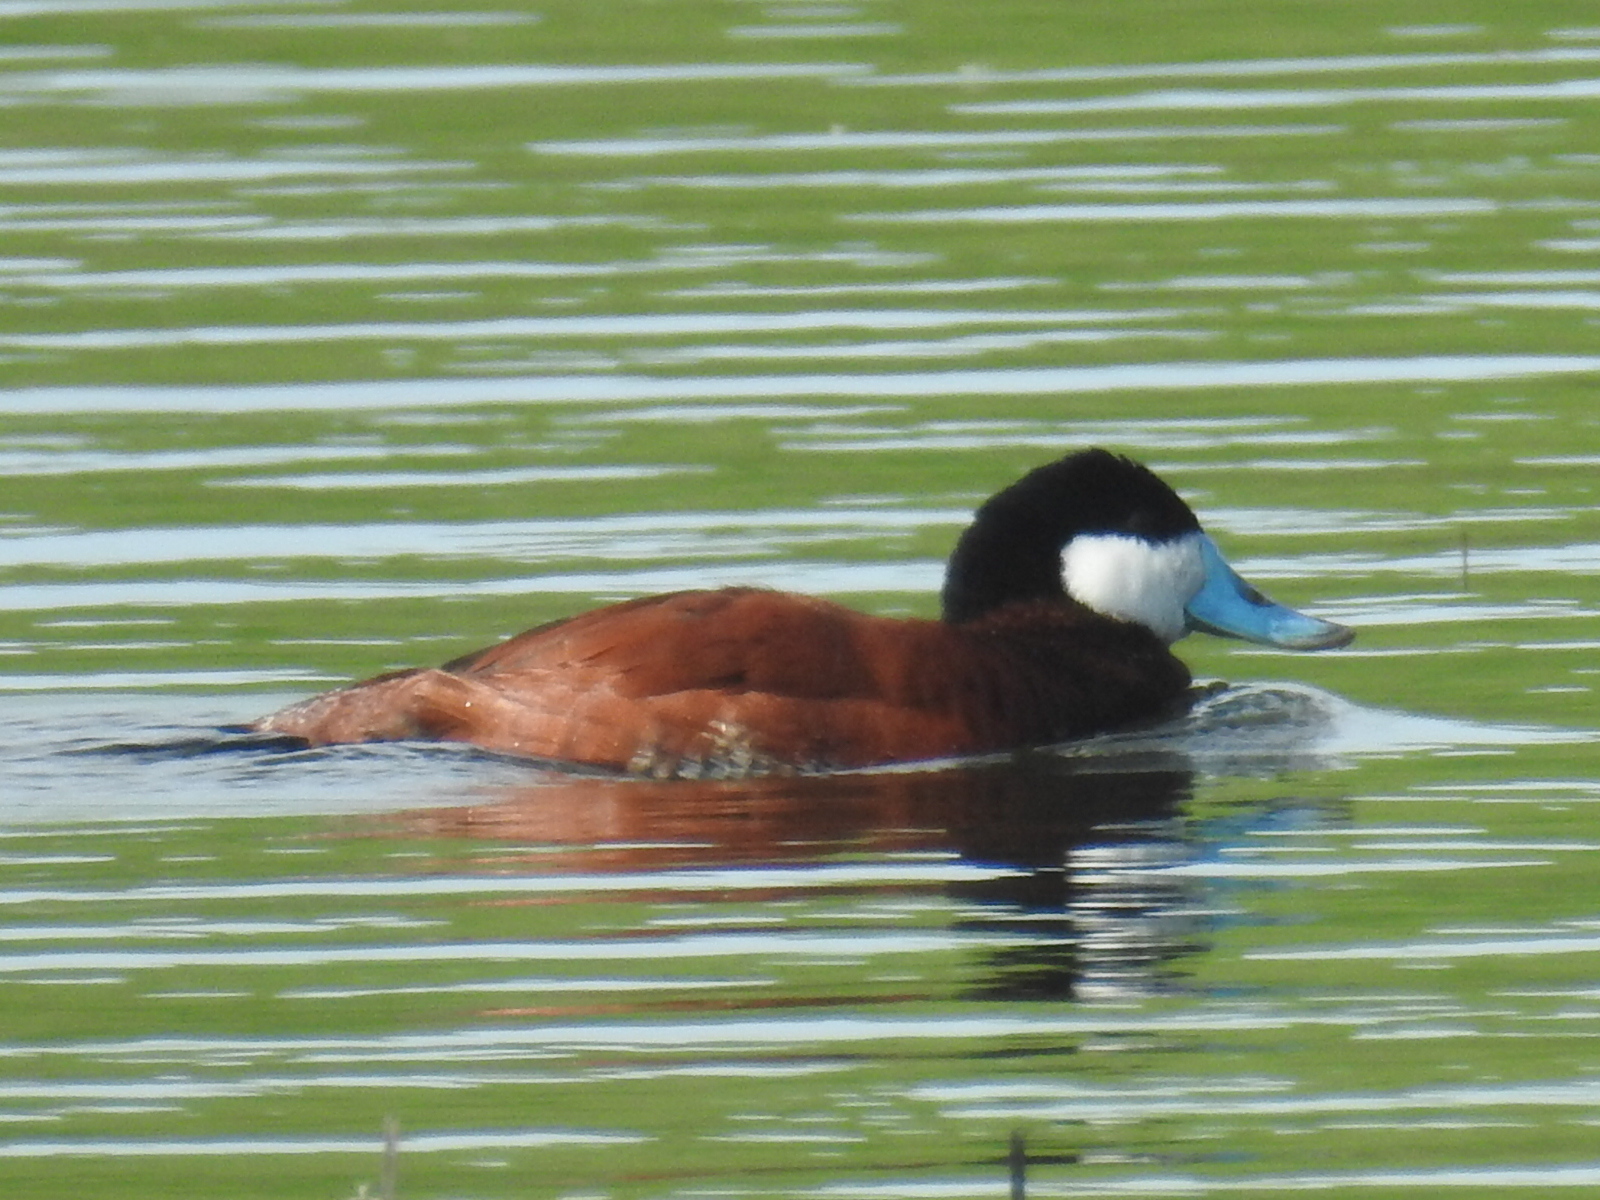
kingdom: Animalia
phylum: Chordata
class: Aves
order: Anseriformes
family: Anatidae
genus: Oxyura
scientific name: Oxyura jamaicensis
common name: Ruddy duck
